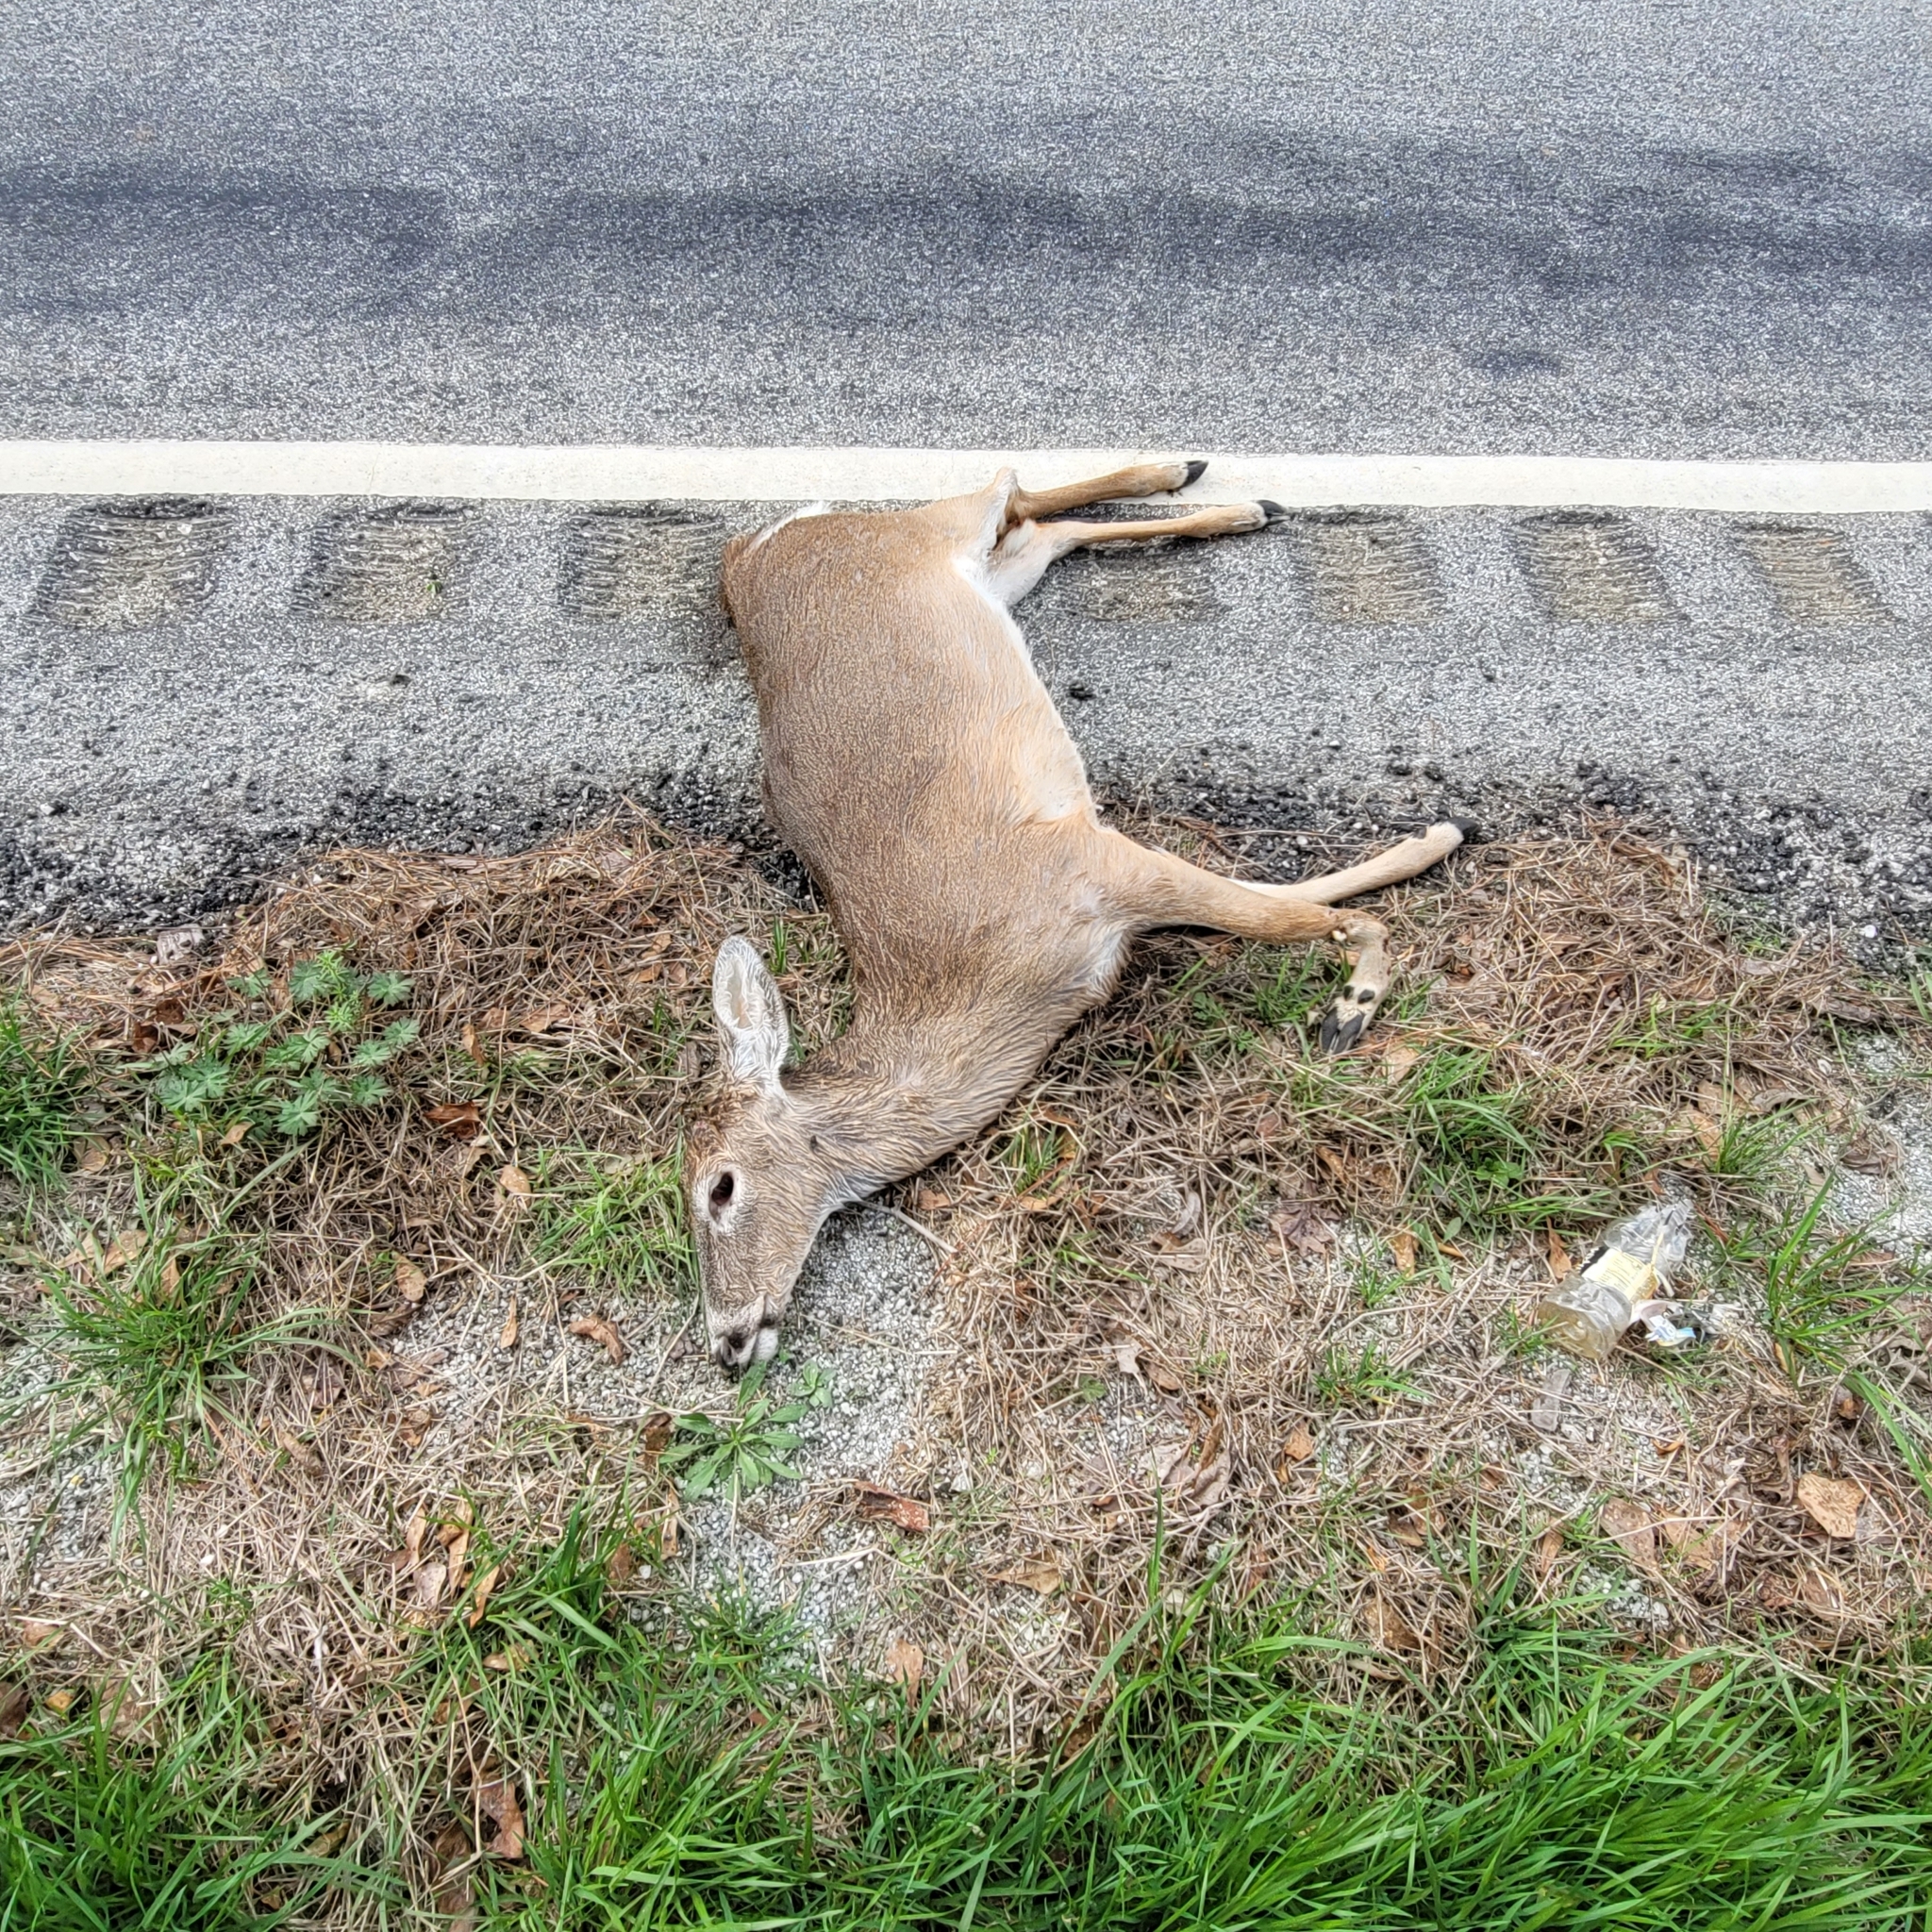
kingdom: Animalia
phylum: Chordata
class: Mammalia
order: Artiodactyla
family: Cervidae
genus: Odocoileus
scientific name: Odocoileus virginianus
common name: White-tailed deer
